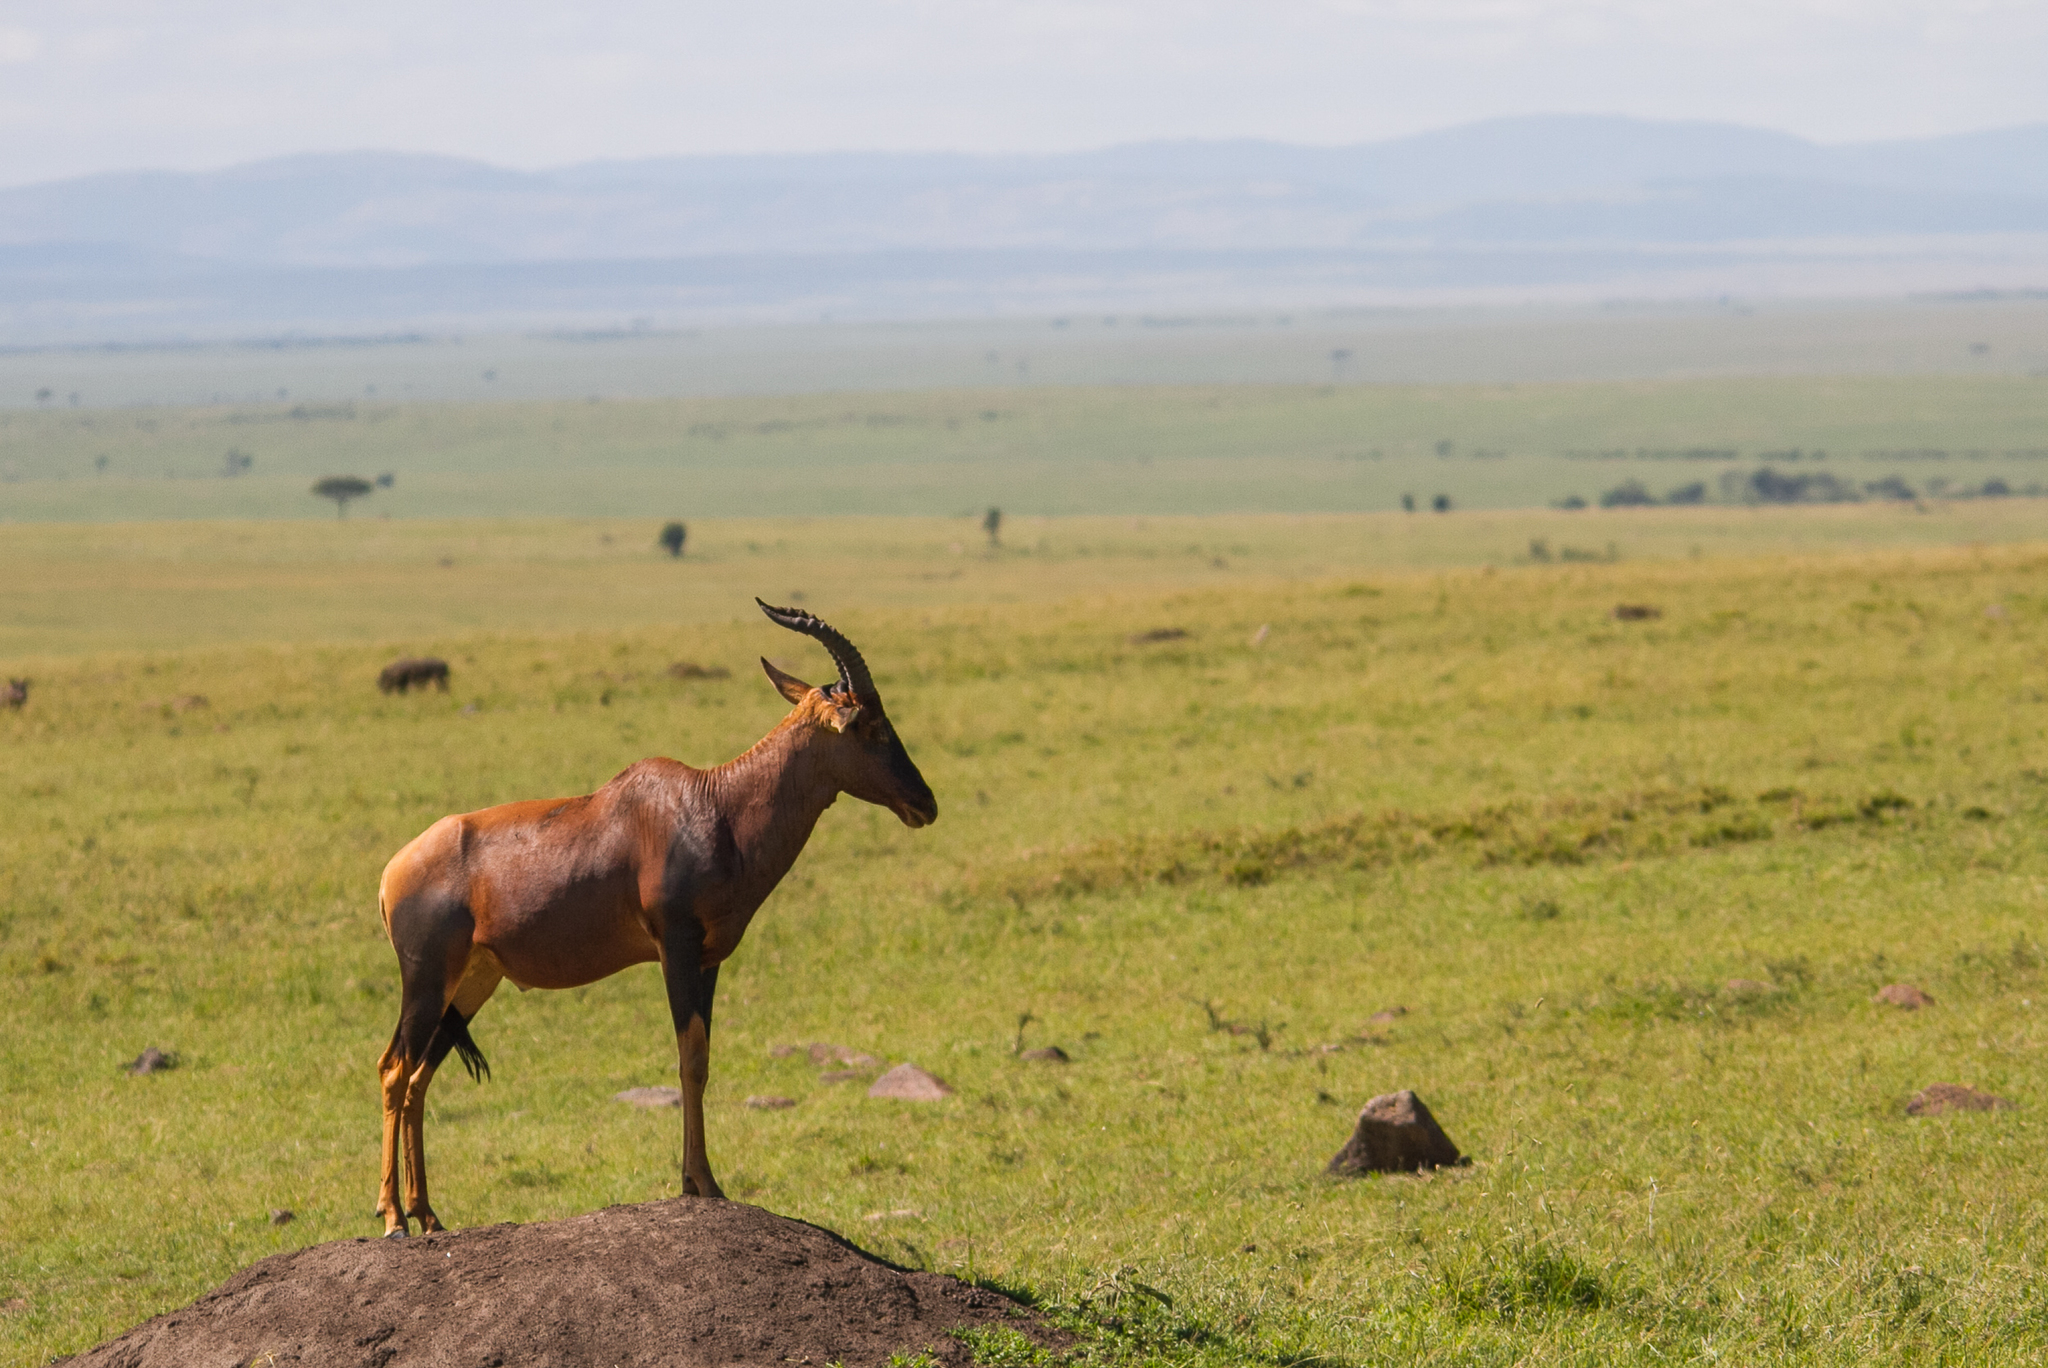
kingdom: Animalia
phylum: Chordata
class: Mammalia
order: Artiodactyla
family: Bovidae
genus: Damaliscus
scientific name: Damaliscus korrigum
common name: Topi
